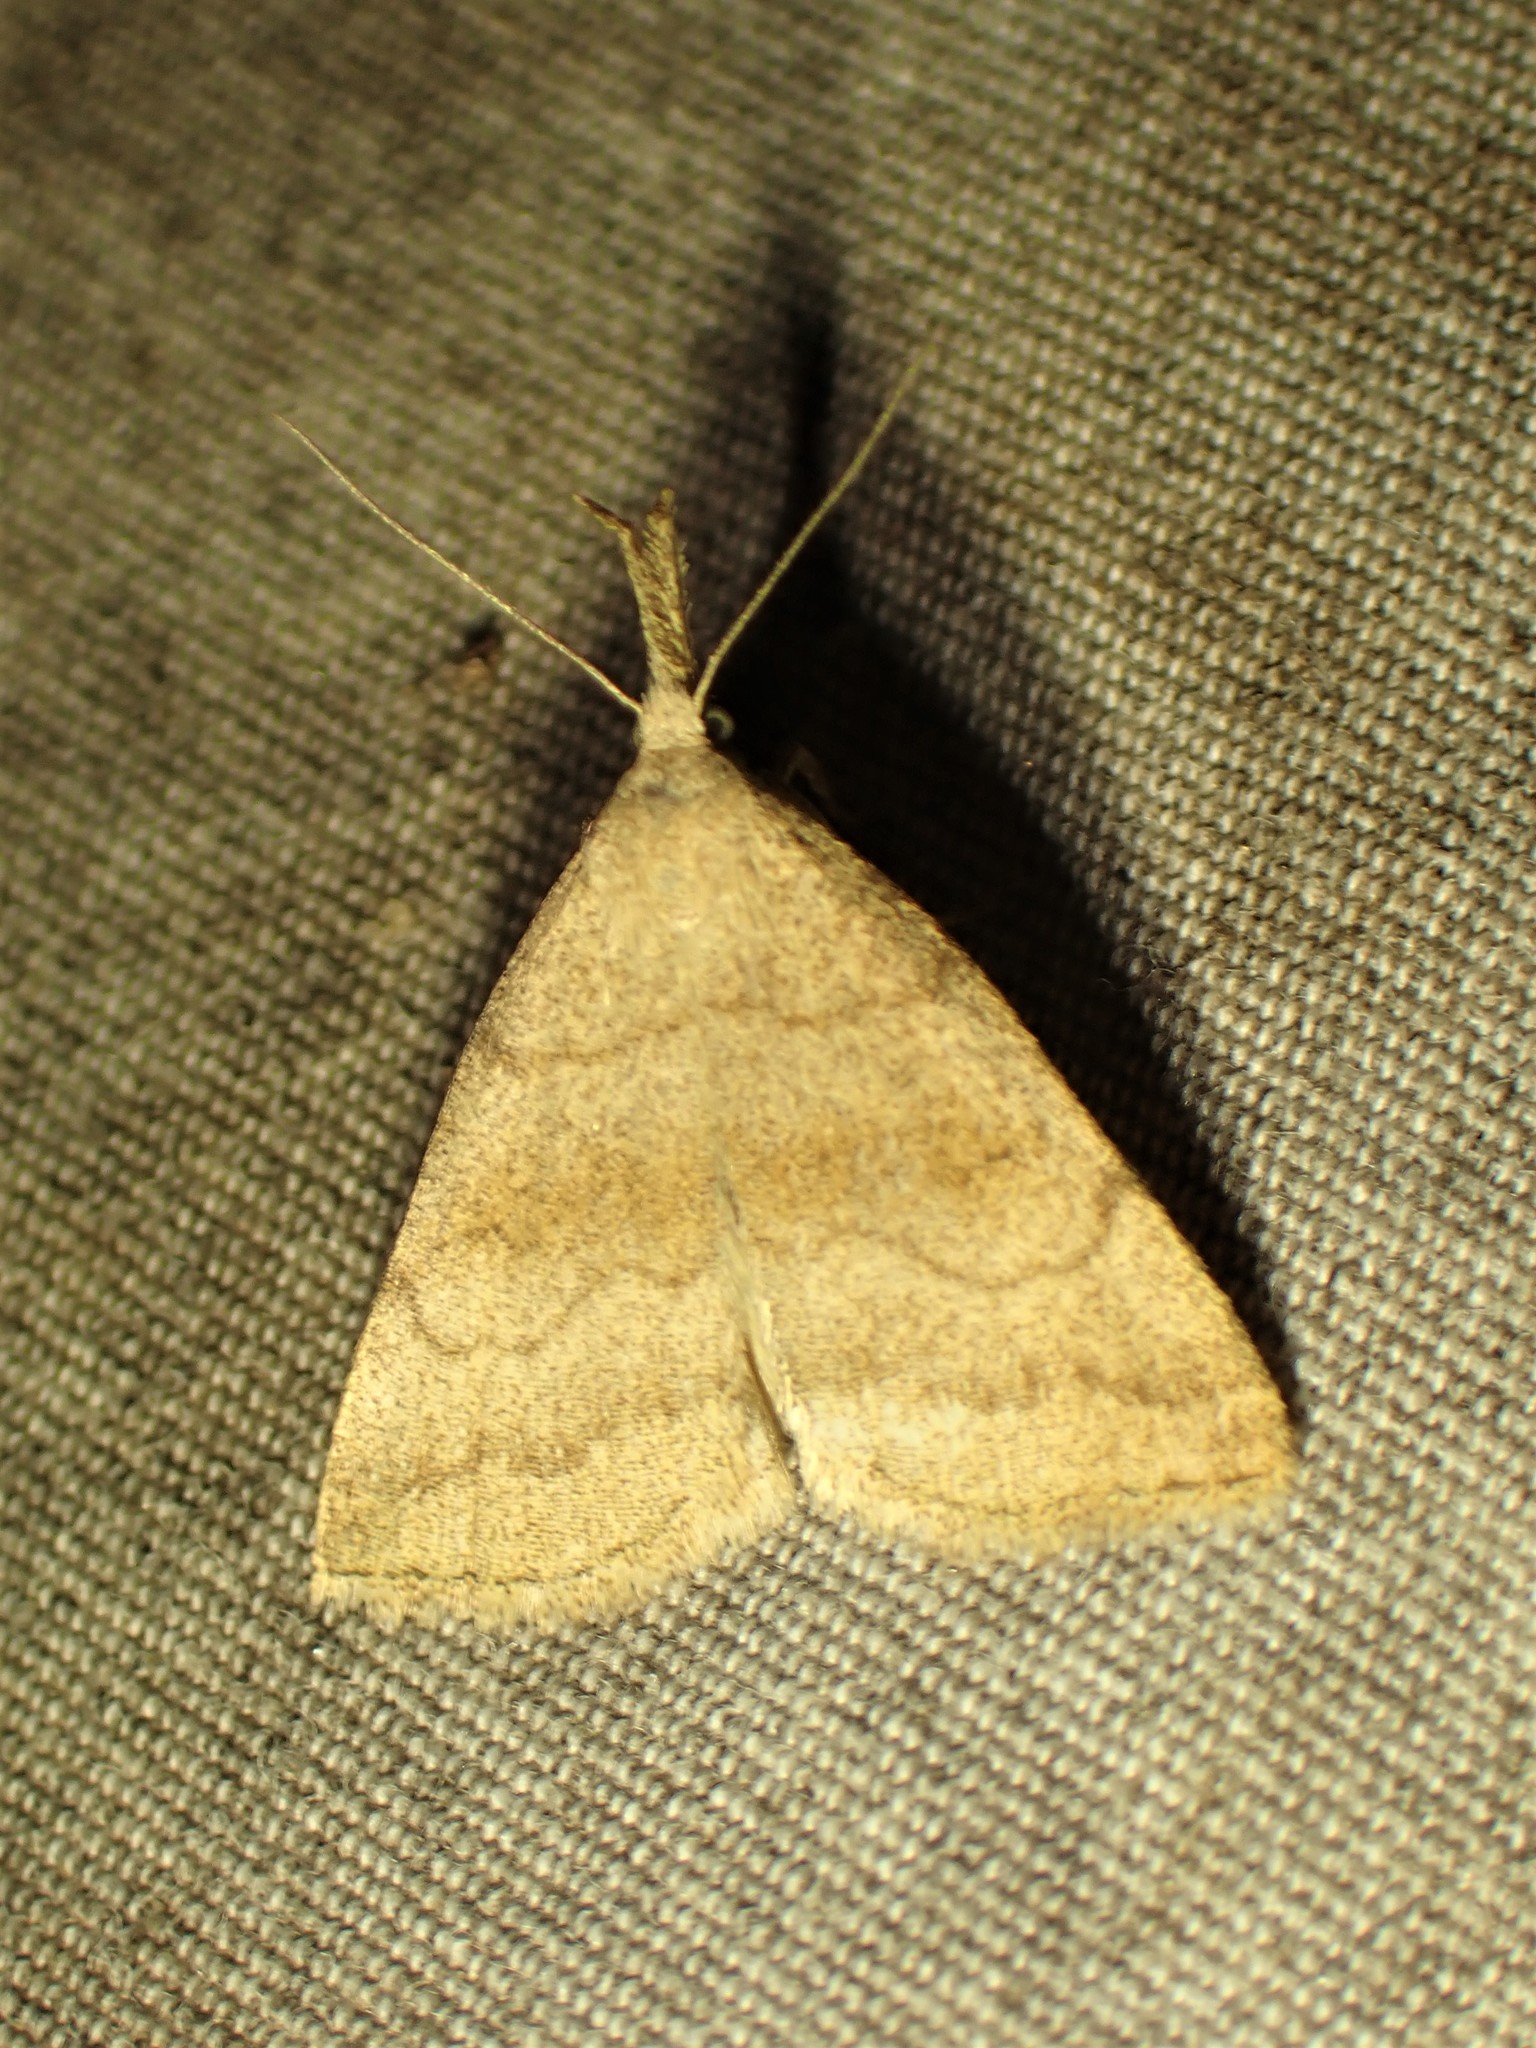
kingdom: Animalia
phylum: Arthropoda
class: Insecta
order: Lepidoptera
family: Erebidae
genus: Phalaenostola
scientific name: Phalaenostola metonalis
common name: Pale phalaenostola moth
